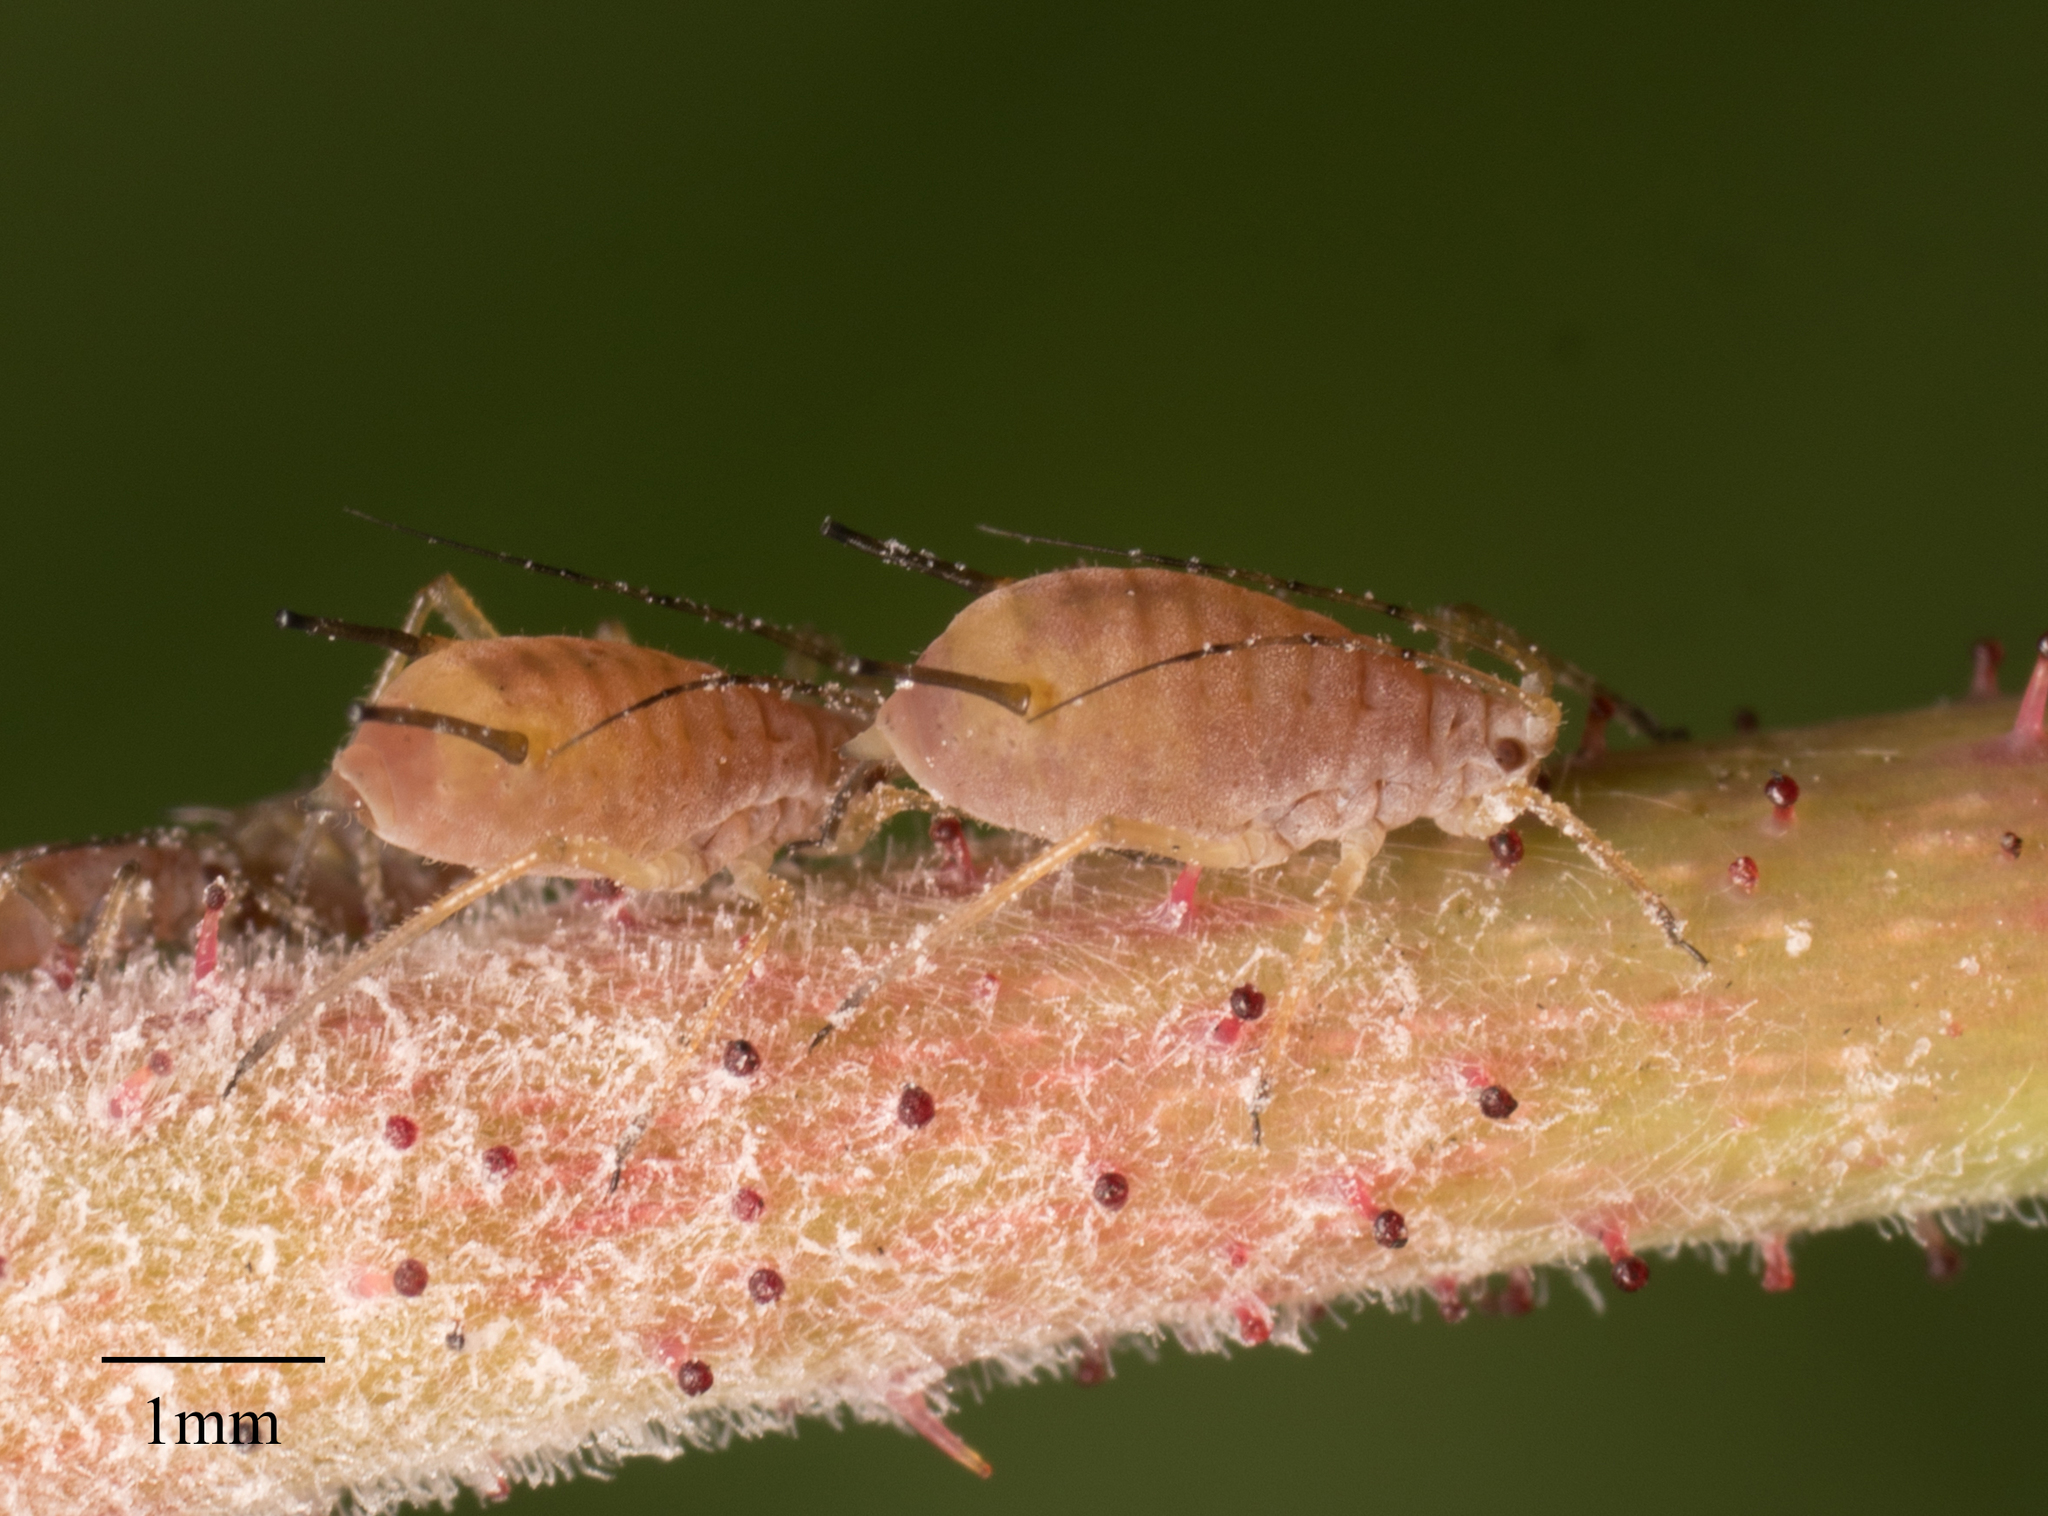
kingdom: Animalia
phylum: Arthropoda
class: Insecta
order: Hemiptera
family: Aphididae
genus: Macrosiphum
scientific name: Macrosiphum rosae
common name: Rose aphid
